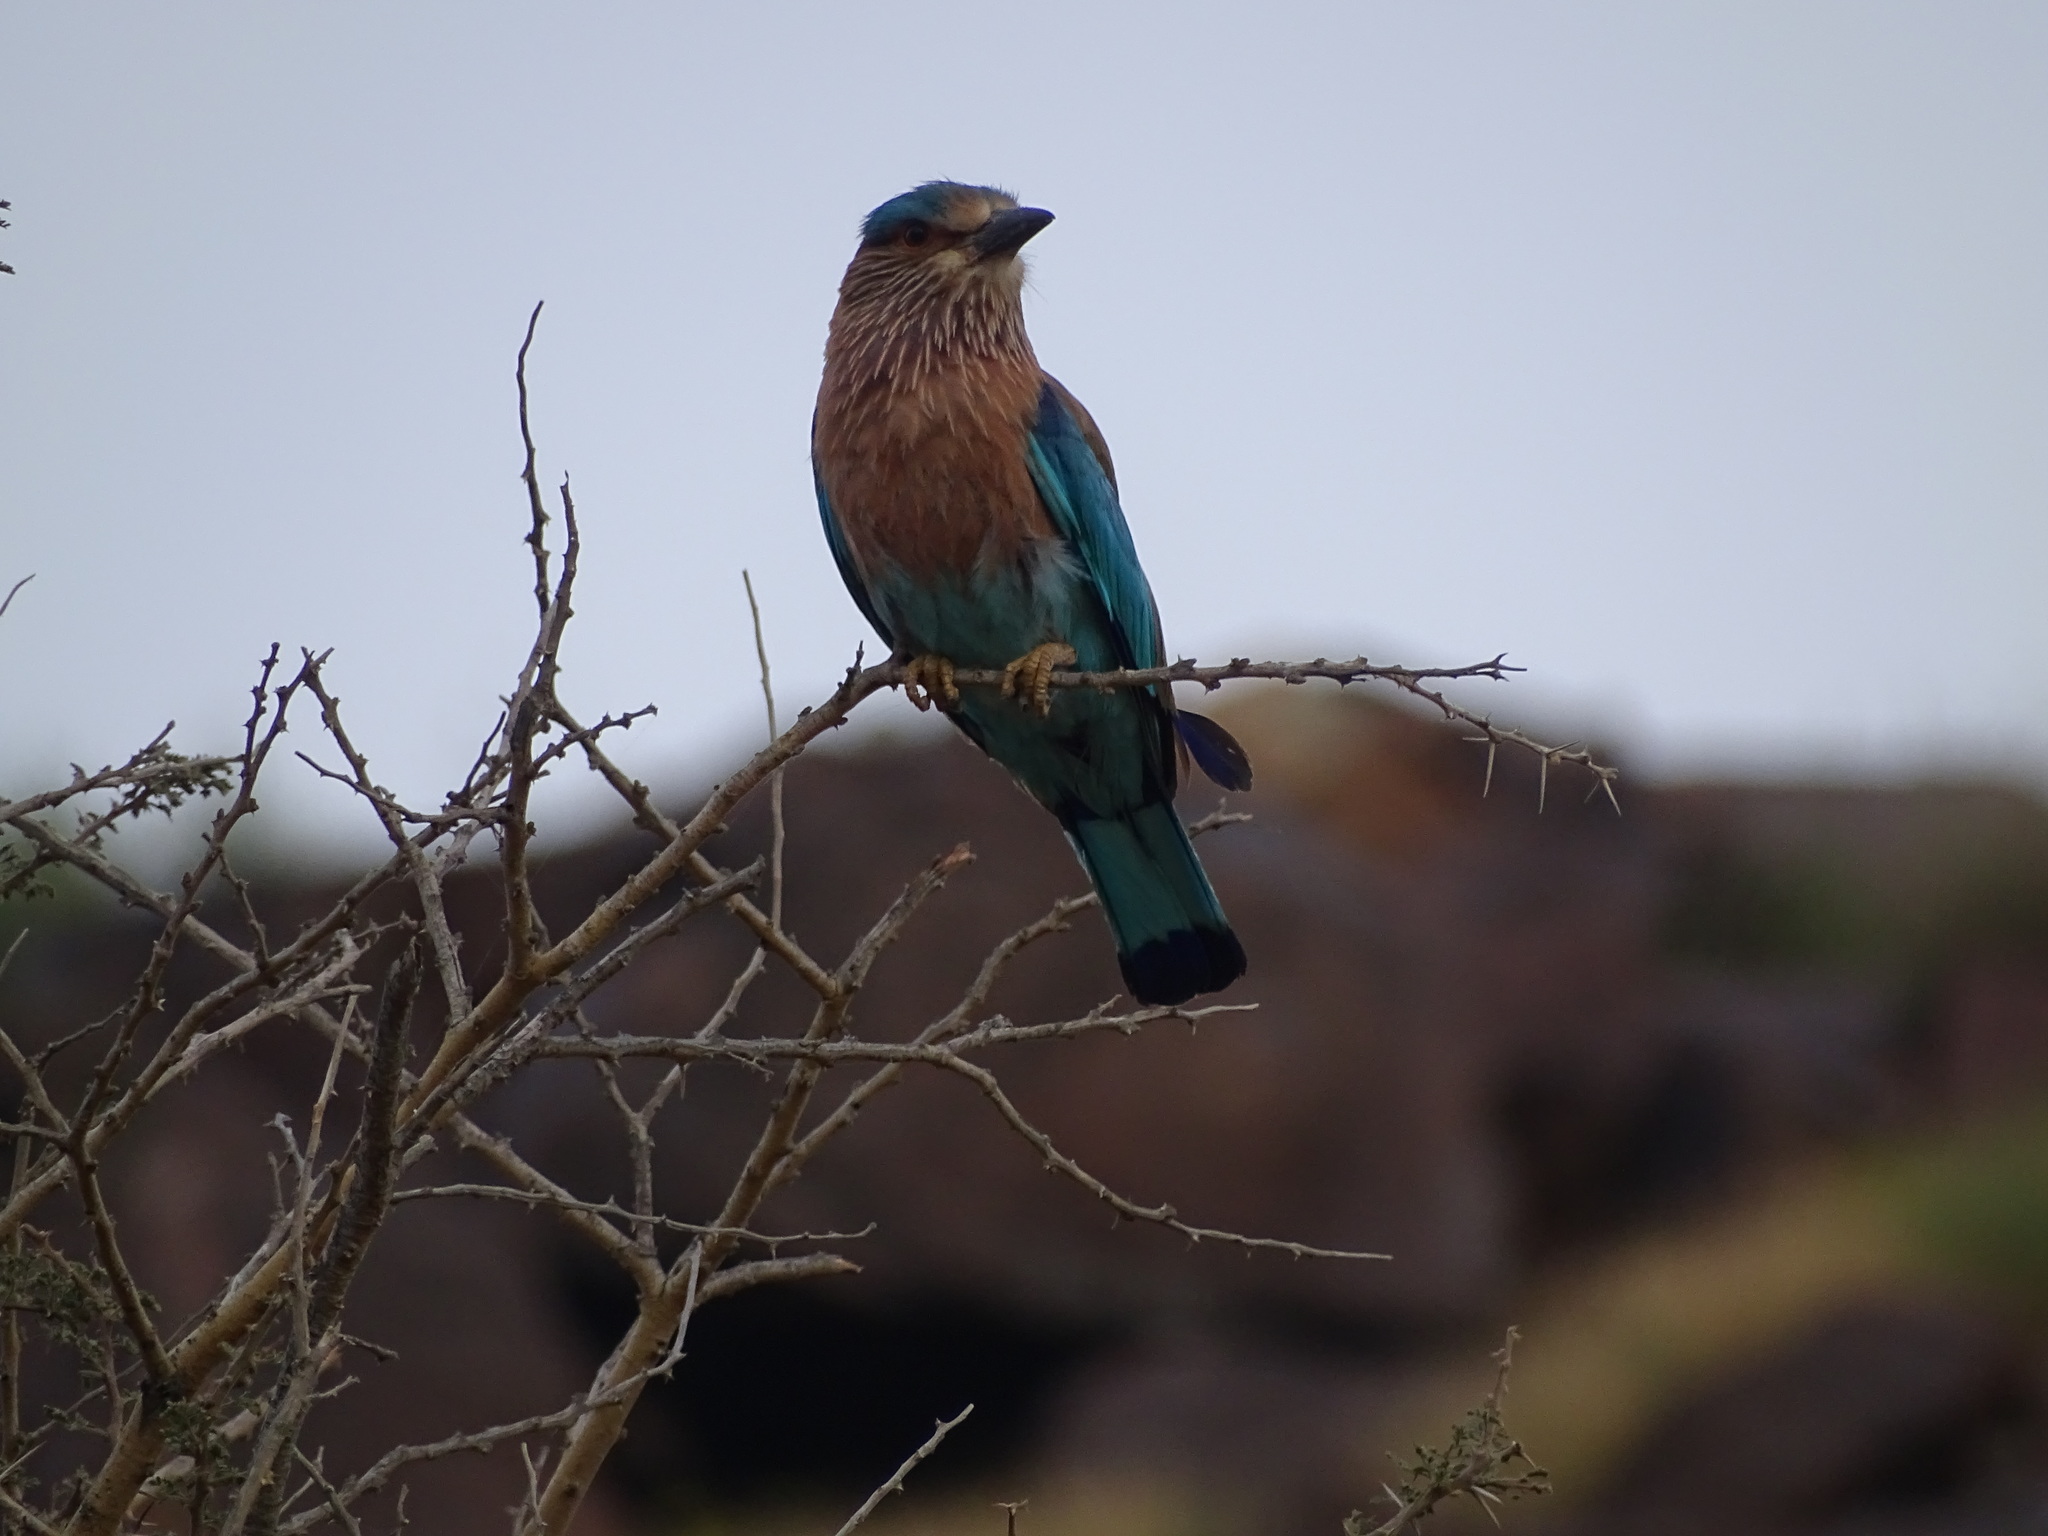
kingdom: Animalia
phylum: Chordata
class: Aves
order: Coraciiformes
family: Coraciidae
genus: Coracias
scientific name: Coracias benghalensis
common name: Indian roller
